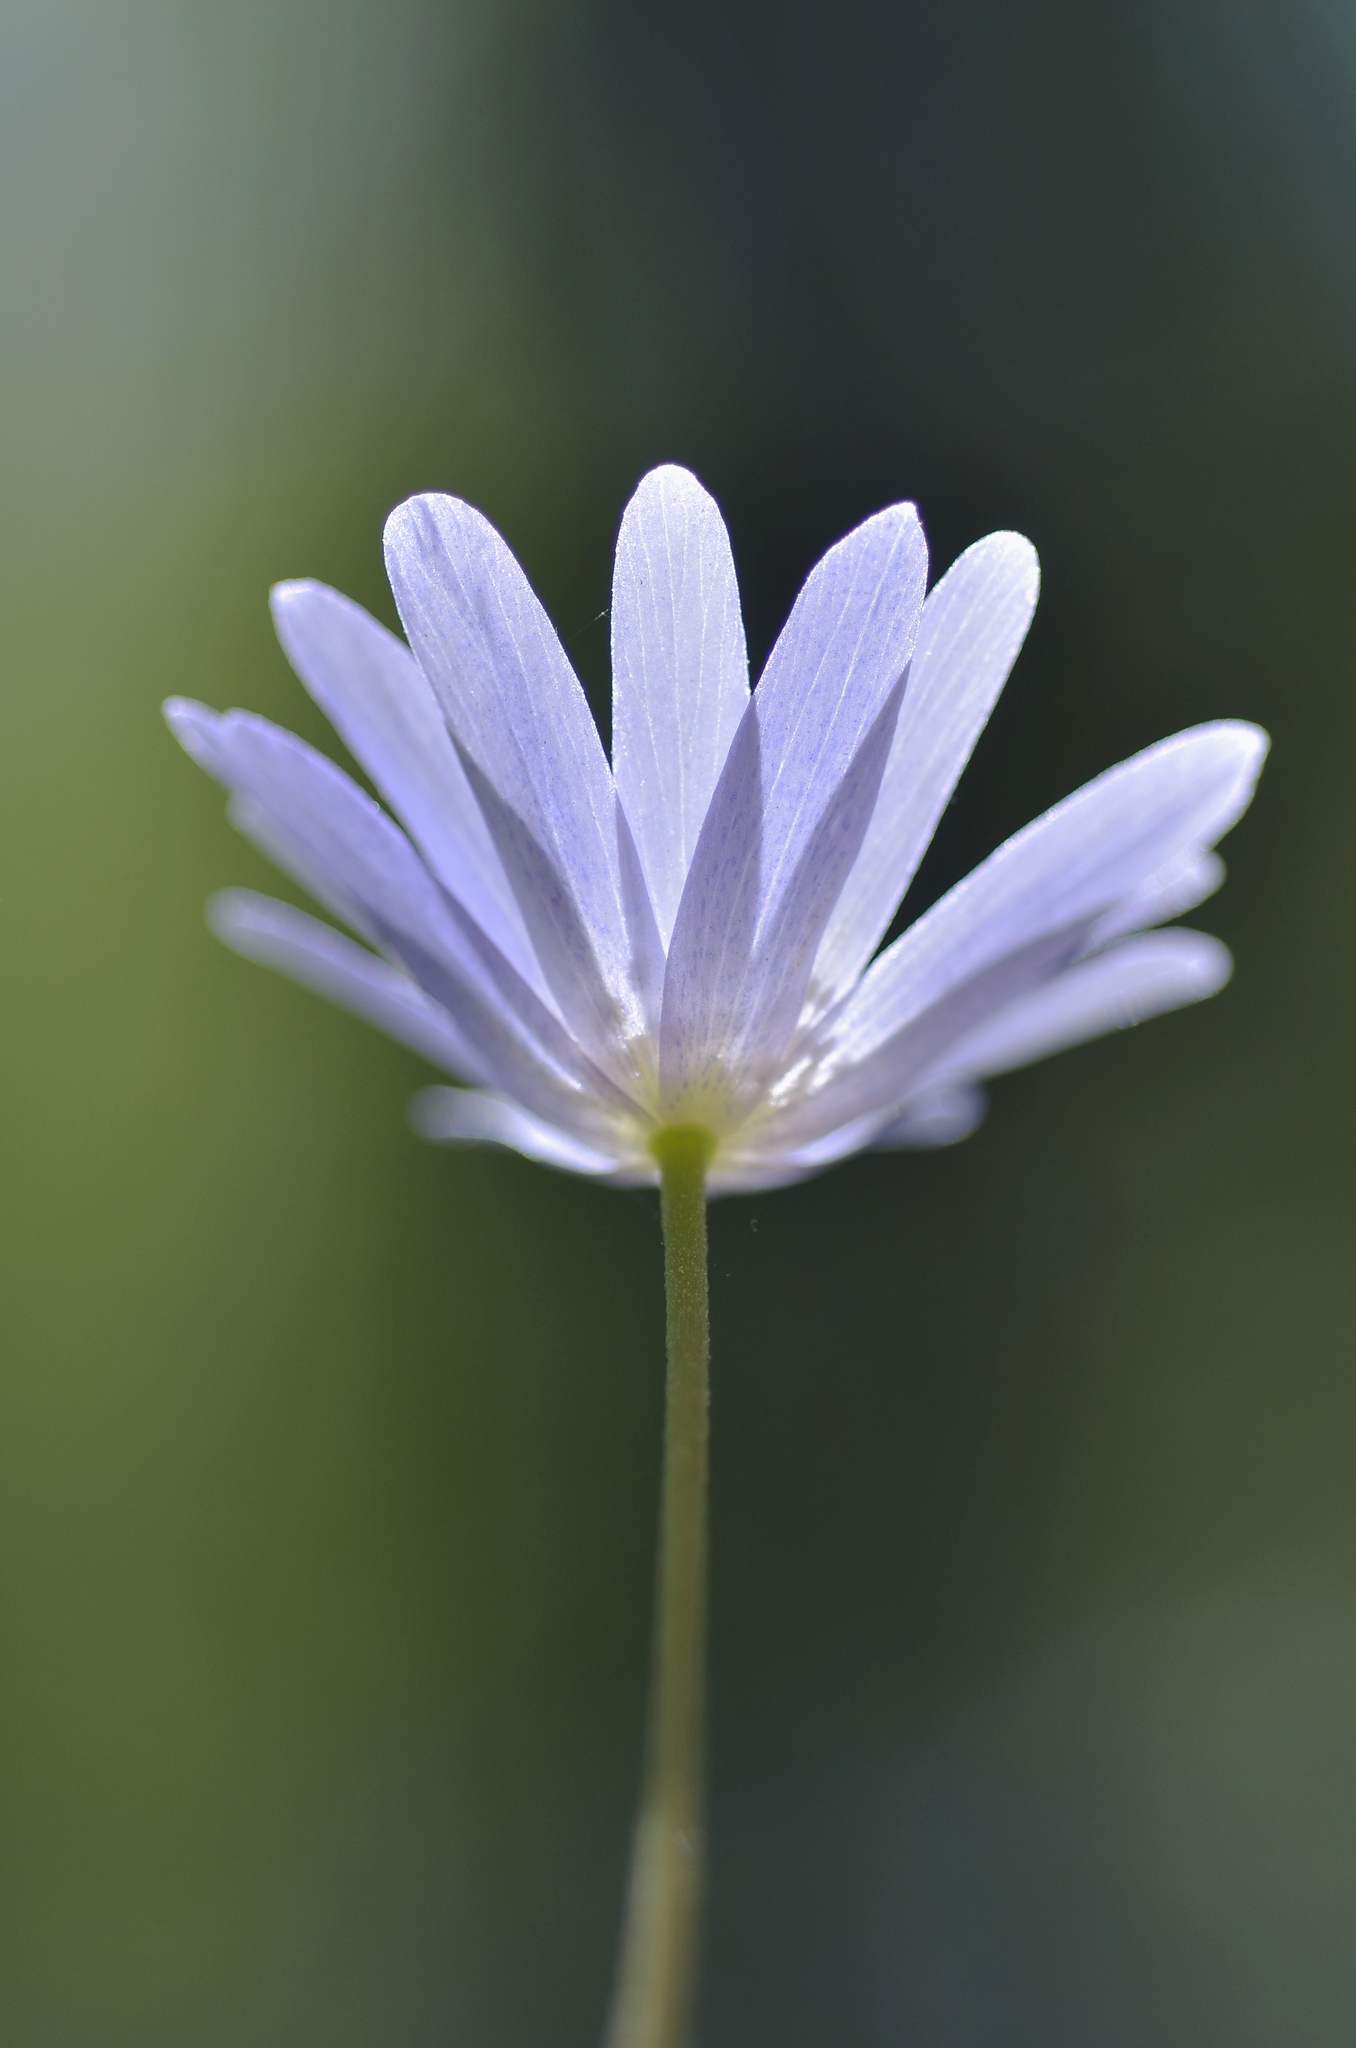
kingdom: Plantae
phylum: Tracheophyta
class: Magnoliopsida
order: Ranunculales
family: Ranunculaceae
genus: Anemone
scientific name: Anemone apennina
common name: Blue anemone
